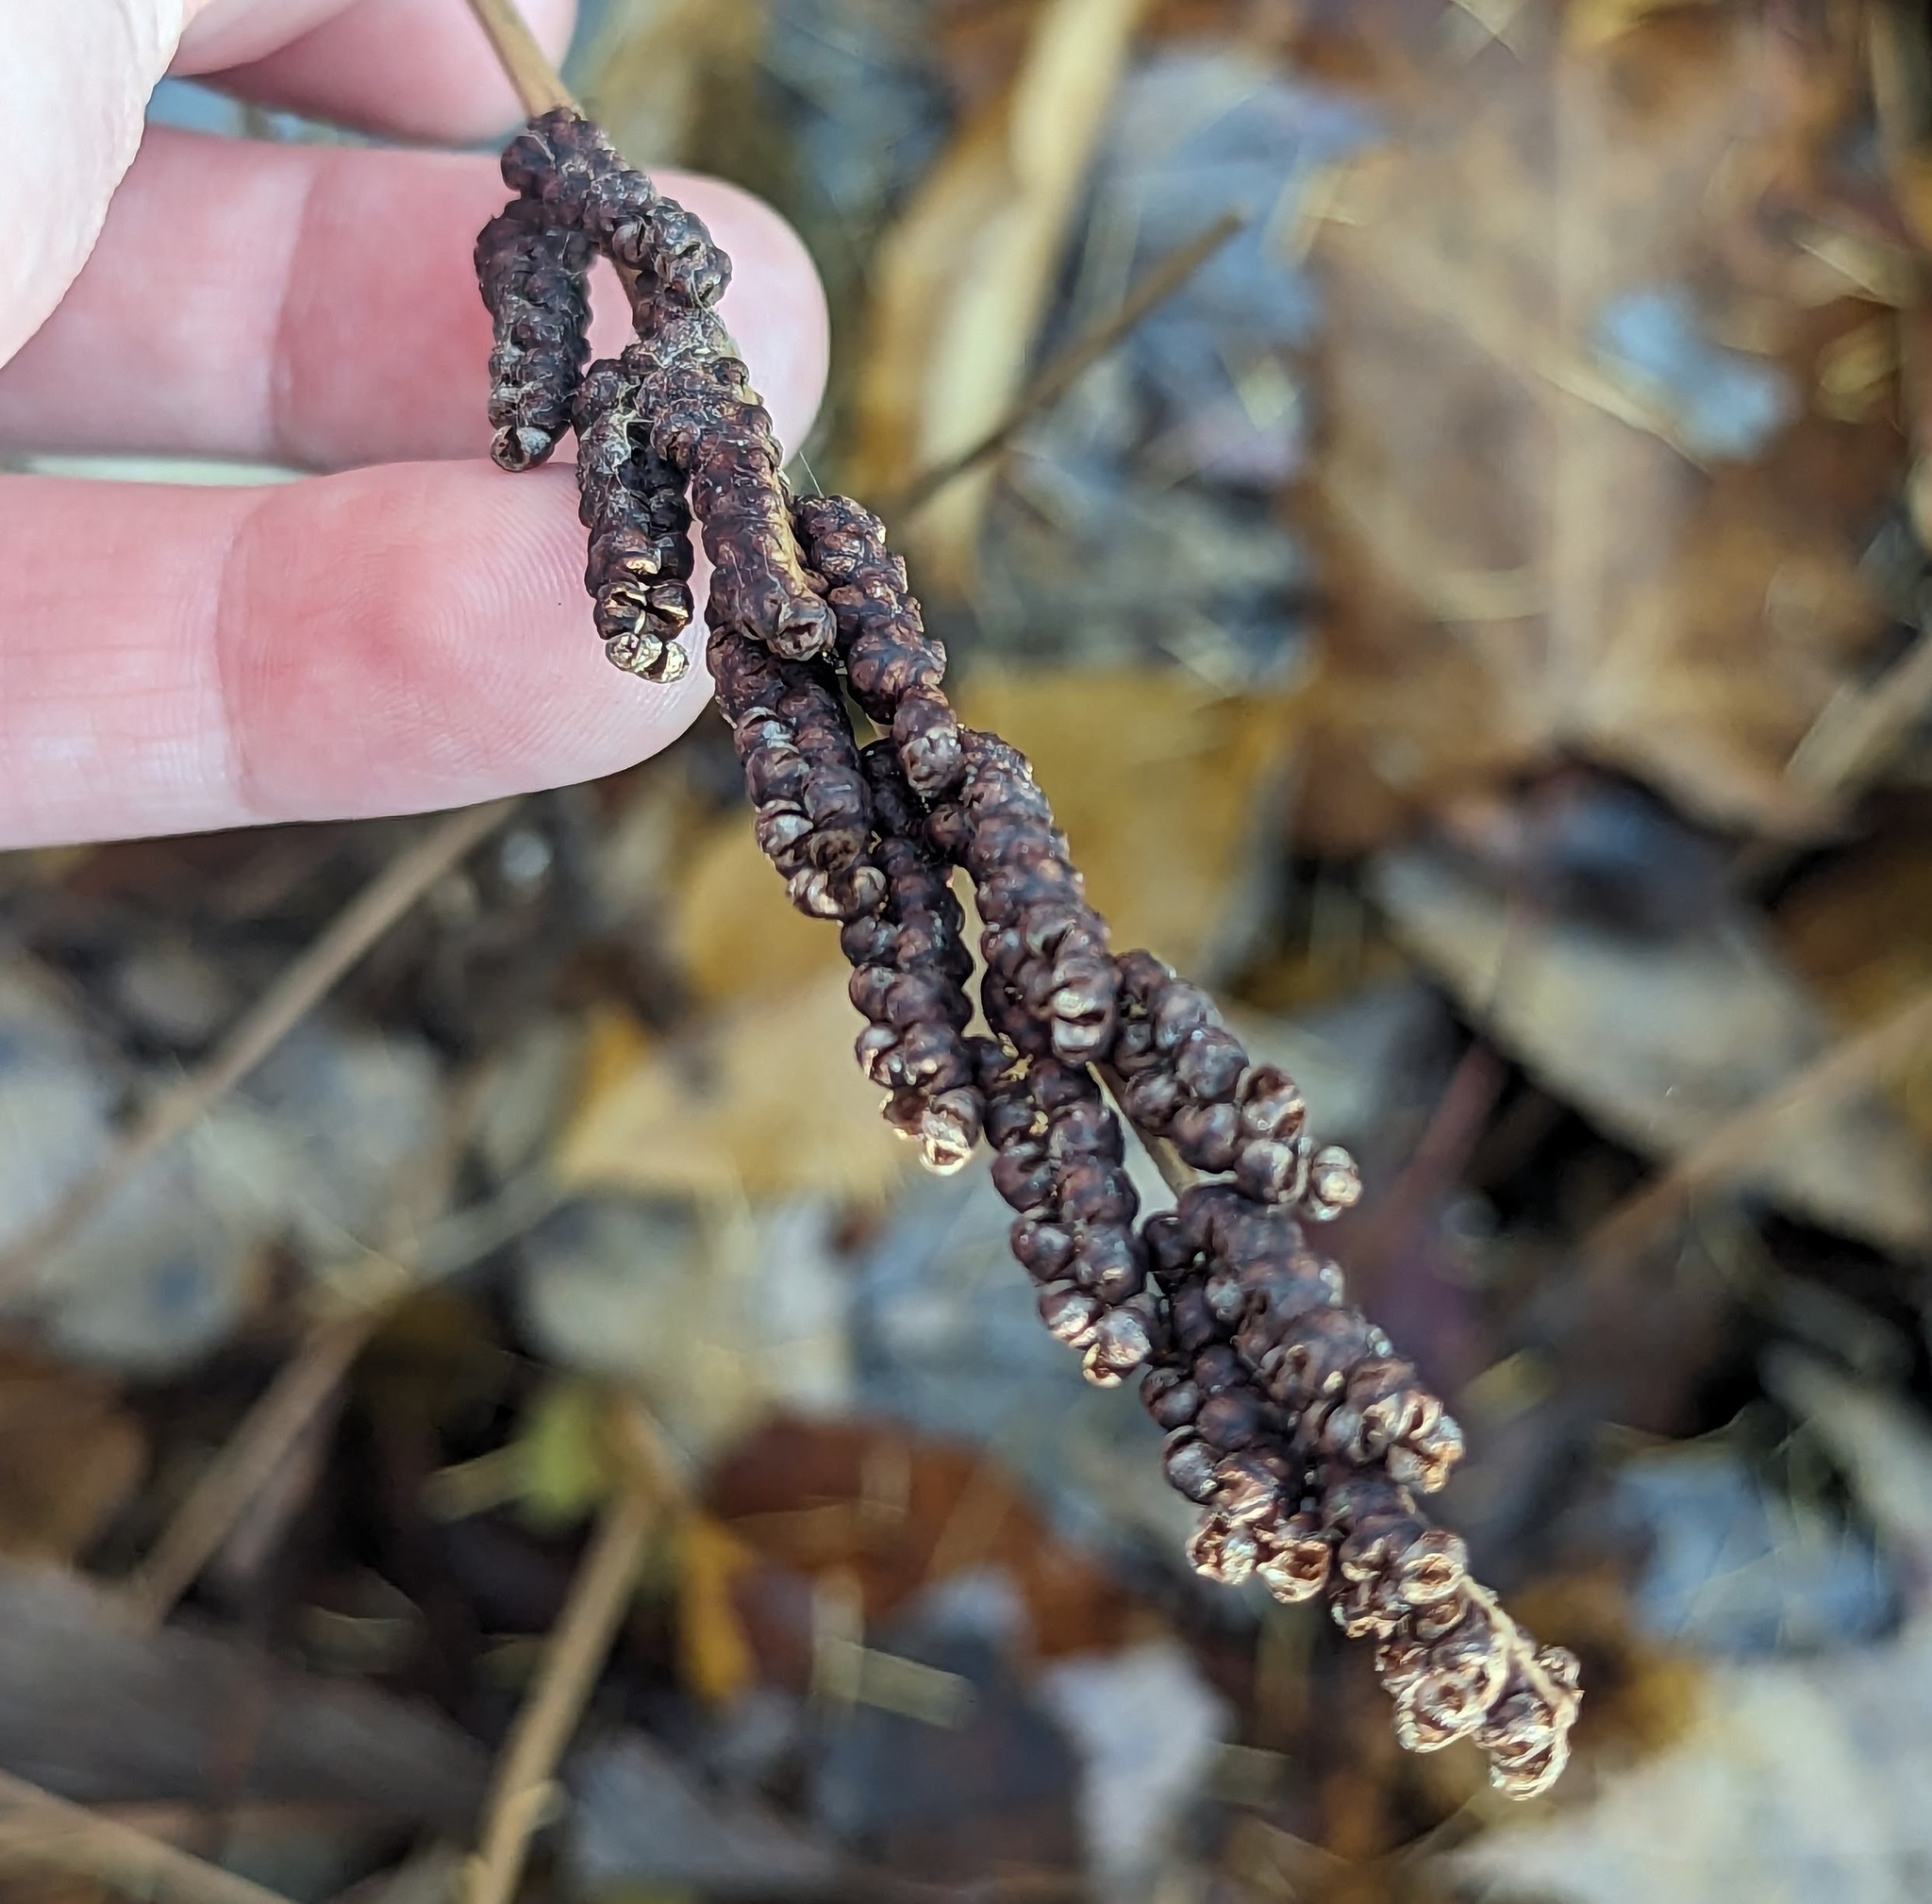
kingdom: Plantae
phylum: Tracheophyta
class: Polypodiopsida
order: Polypodiales
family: Onocleaceae
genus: Onoclea
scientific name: Onoclea sensibilis
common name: Sensitive fern
